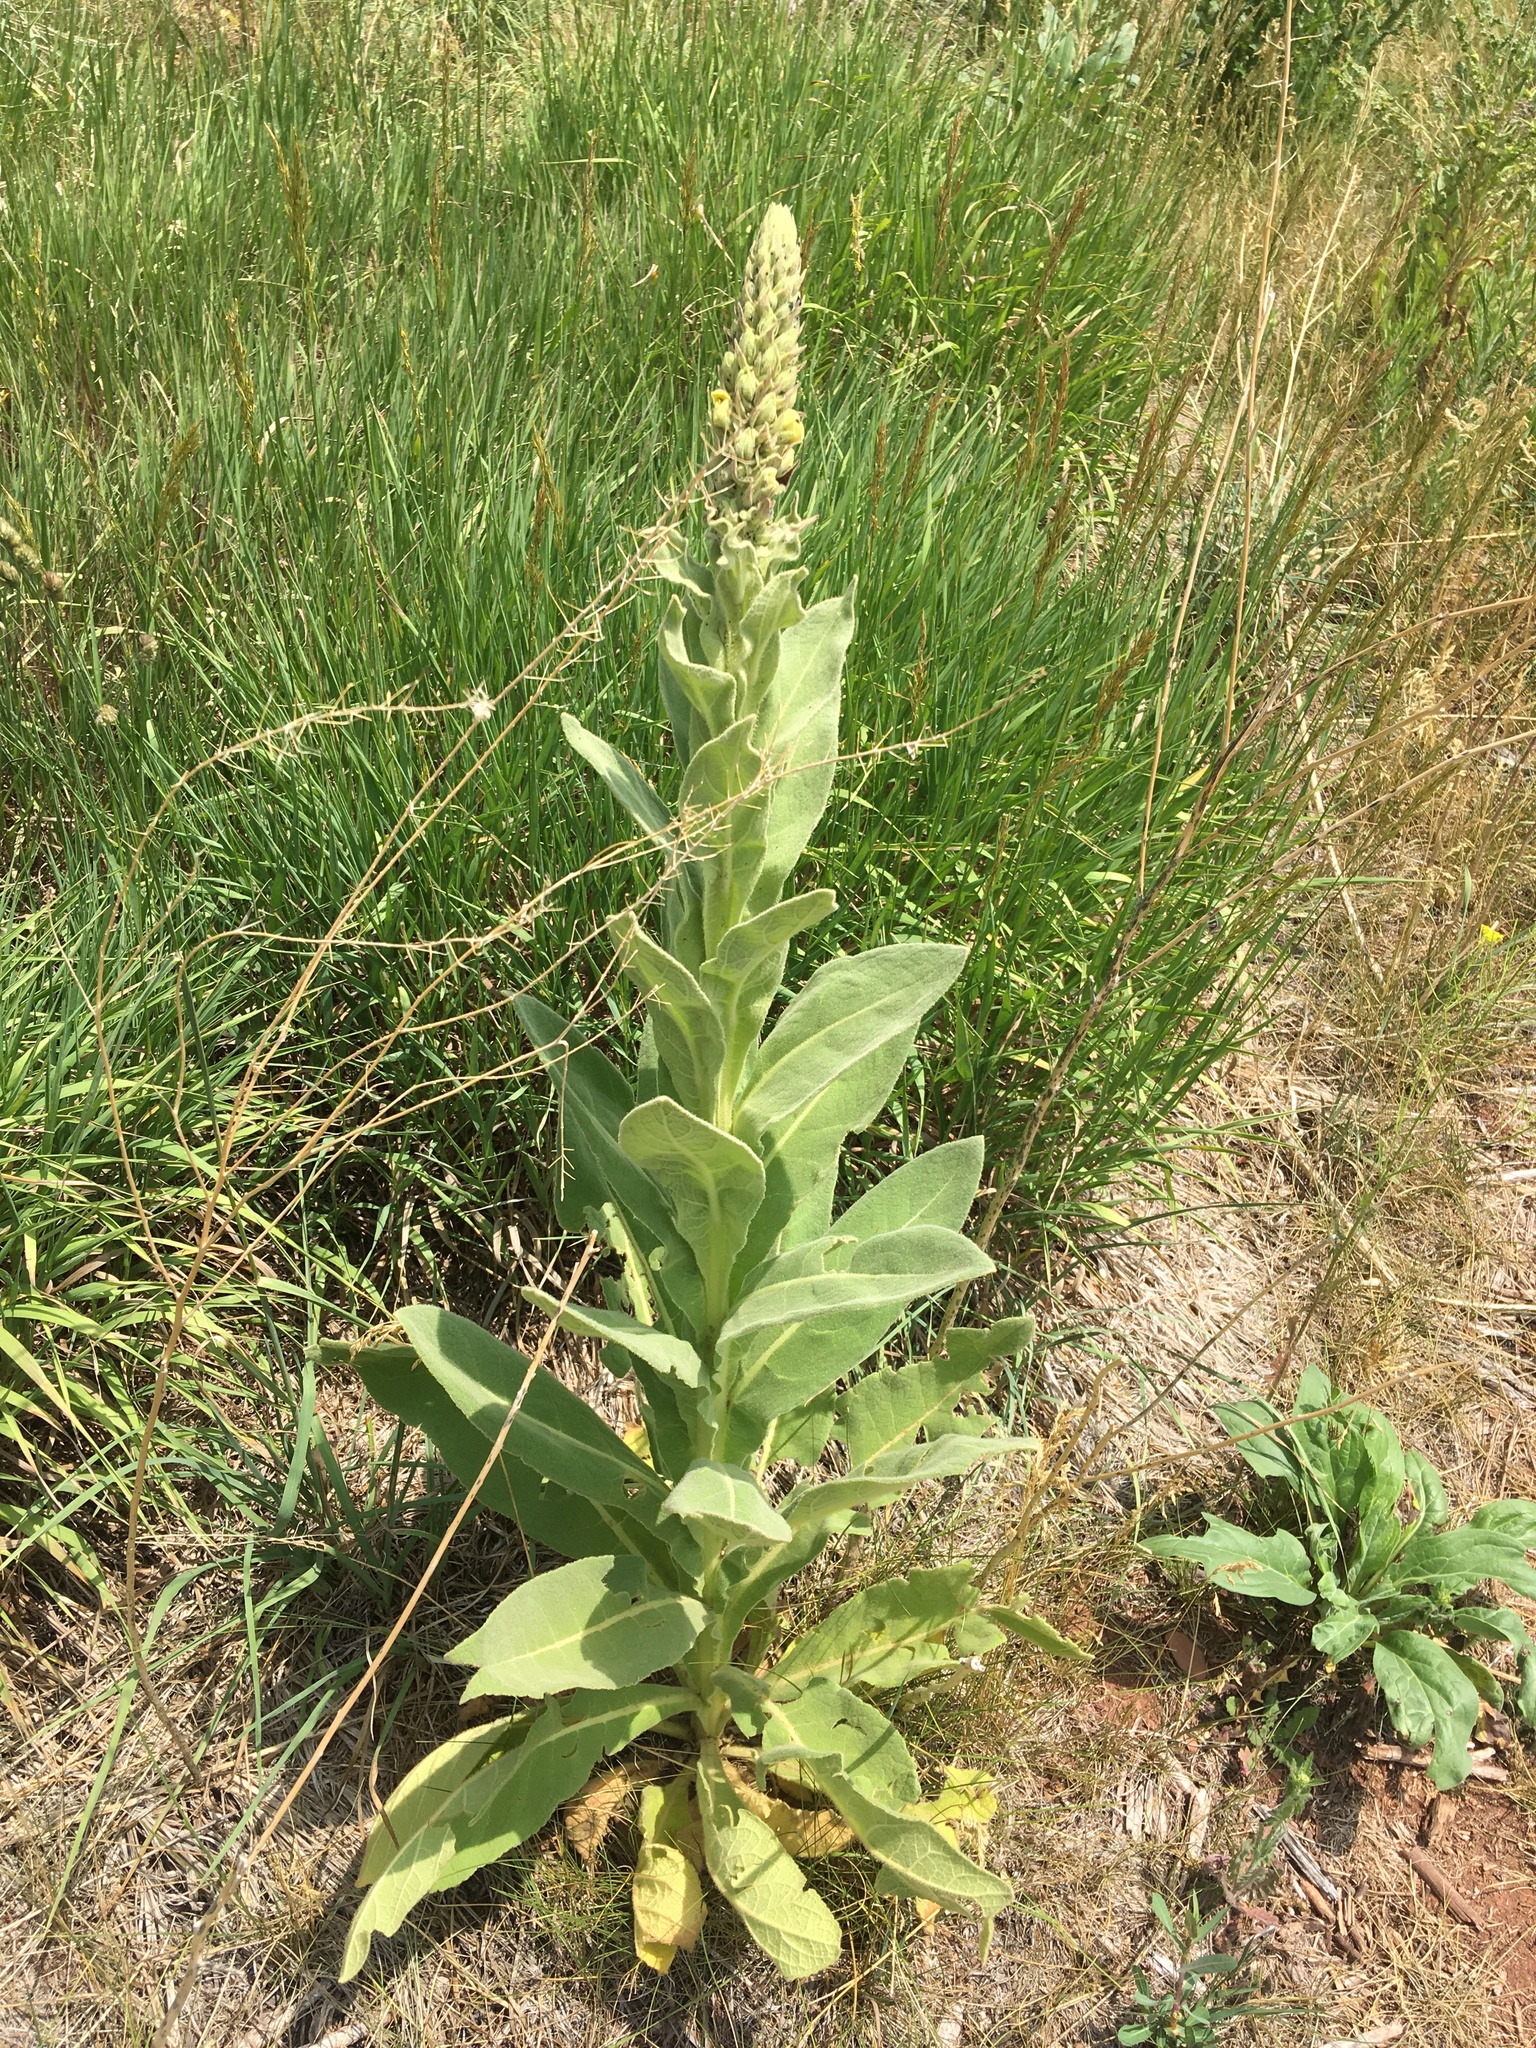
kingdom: Plantae
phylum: Tracheophyta
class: Magnoliopsida
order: Lamiales
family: Scrophulariaceae
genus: Verbascum
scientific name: Verbascum thapsus
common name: Common mullein
